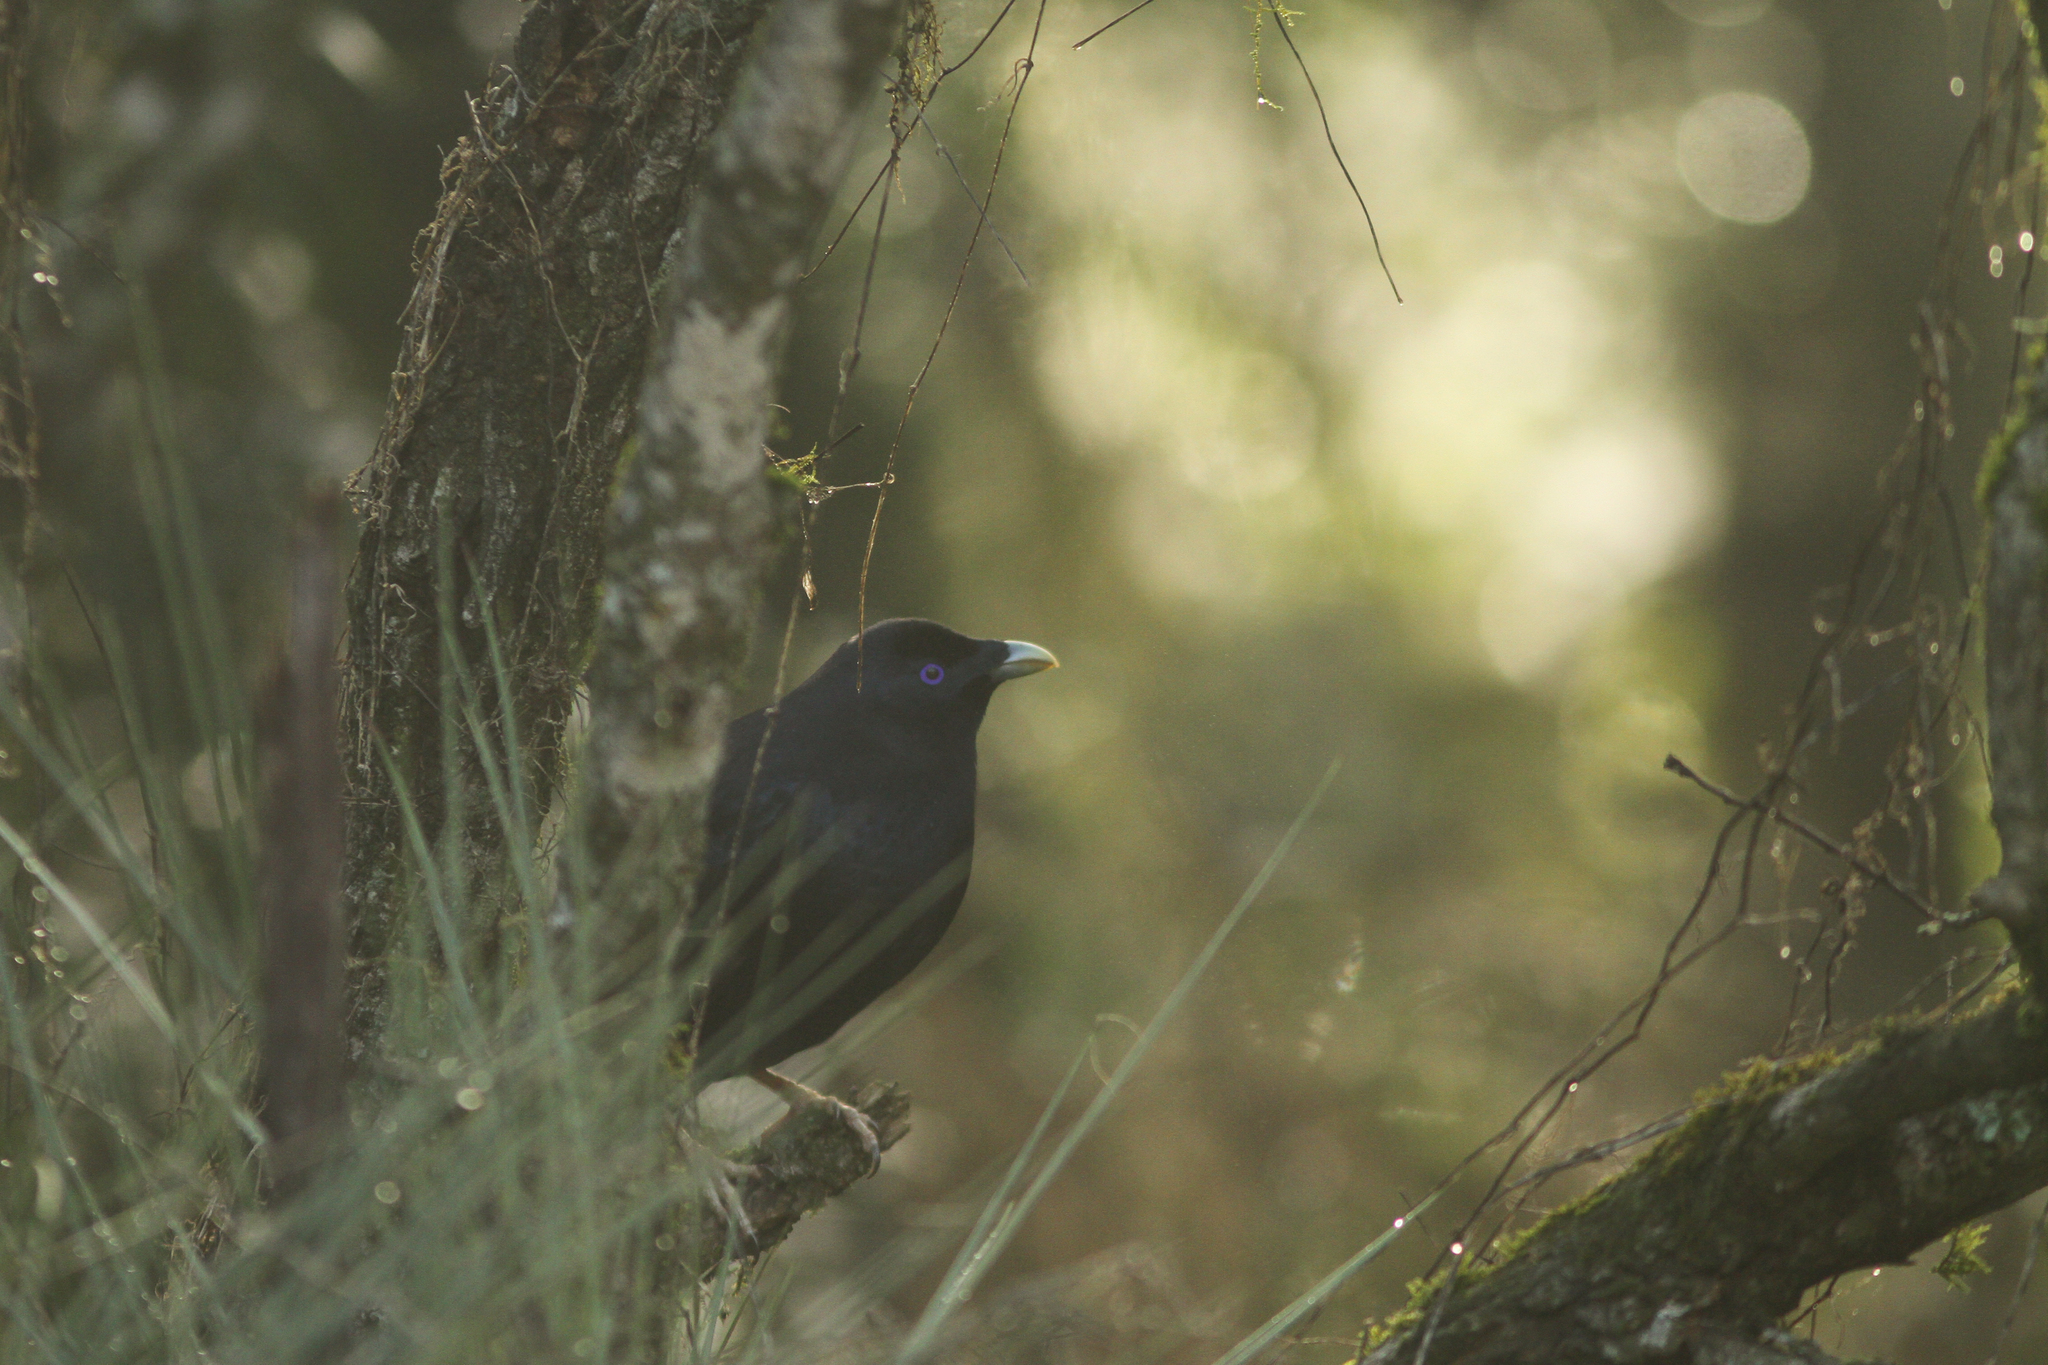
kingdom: Animalia
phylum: Chordata
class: Aves
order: Passeriformes
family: Ptilonorhynchidae
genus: Ptilonorhynchus
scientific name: Ptilonorhynchus violaceus
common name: Satin bowerbird
